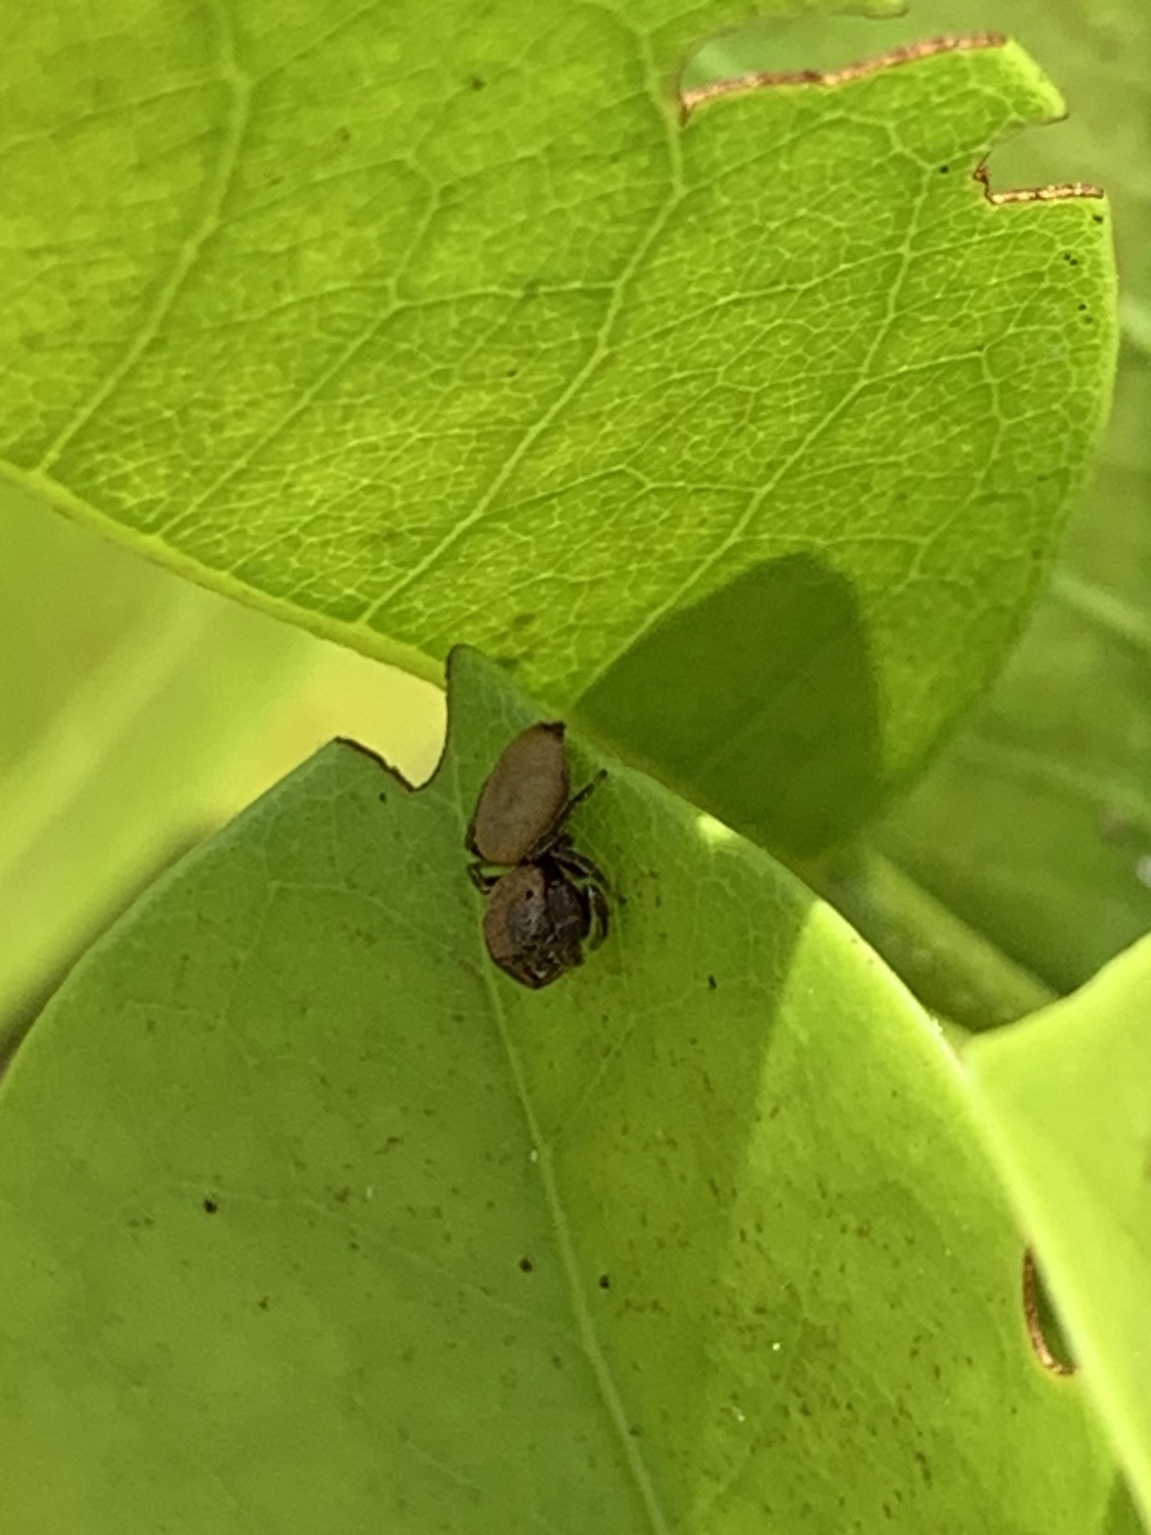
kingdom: Animalia
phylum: Arthropoda
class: Arachnida
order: Araneae
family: Salticidae
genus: Beata
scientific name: Beata wickhami
